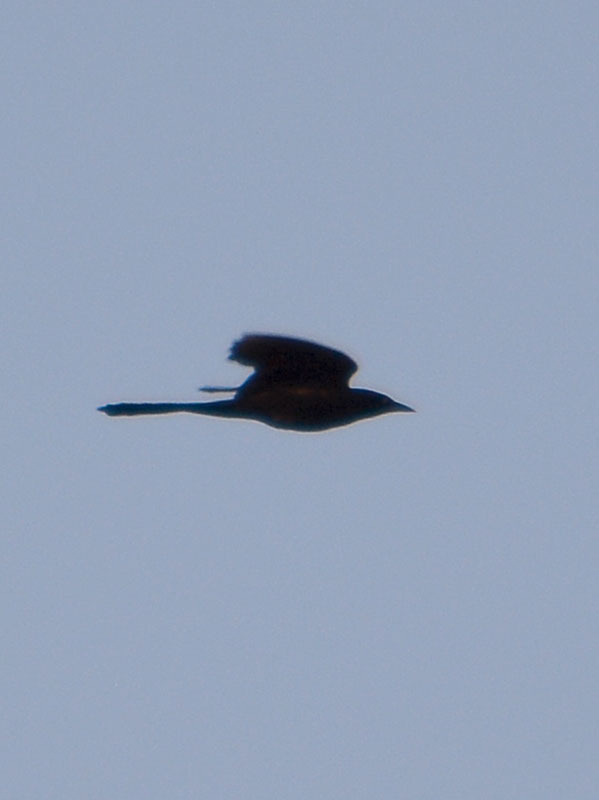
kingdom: Animalia
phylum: Chordata
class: Aves
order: Passeriformes
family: Icteridae
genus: Quiscalus
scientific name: Quiscalus mexicanus
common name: Great-tailed grackle
